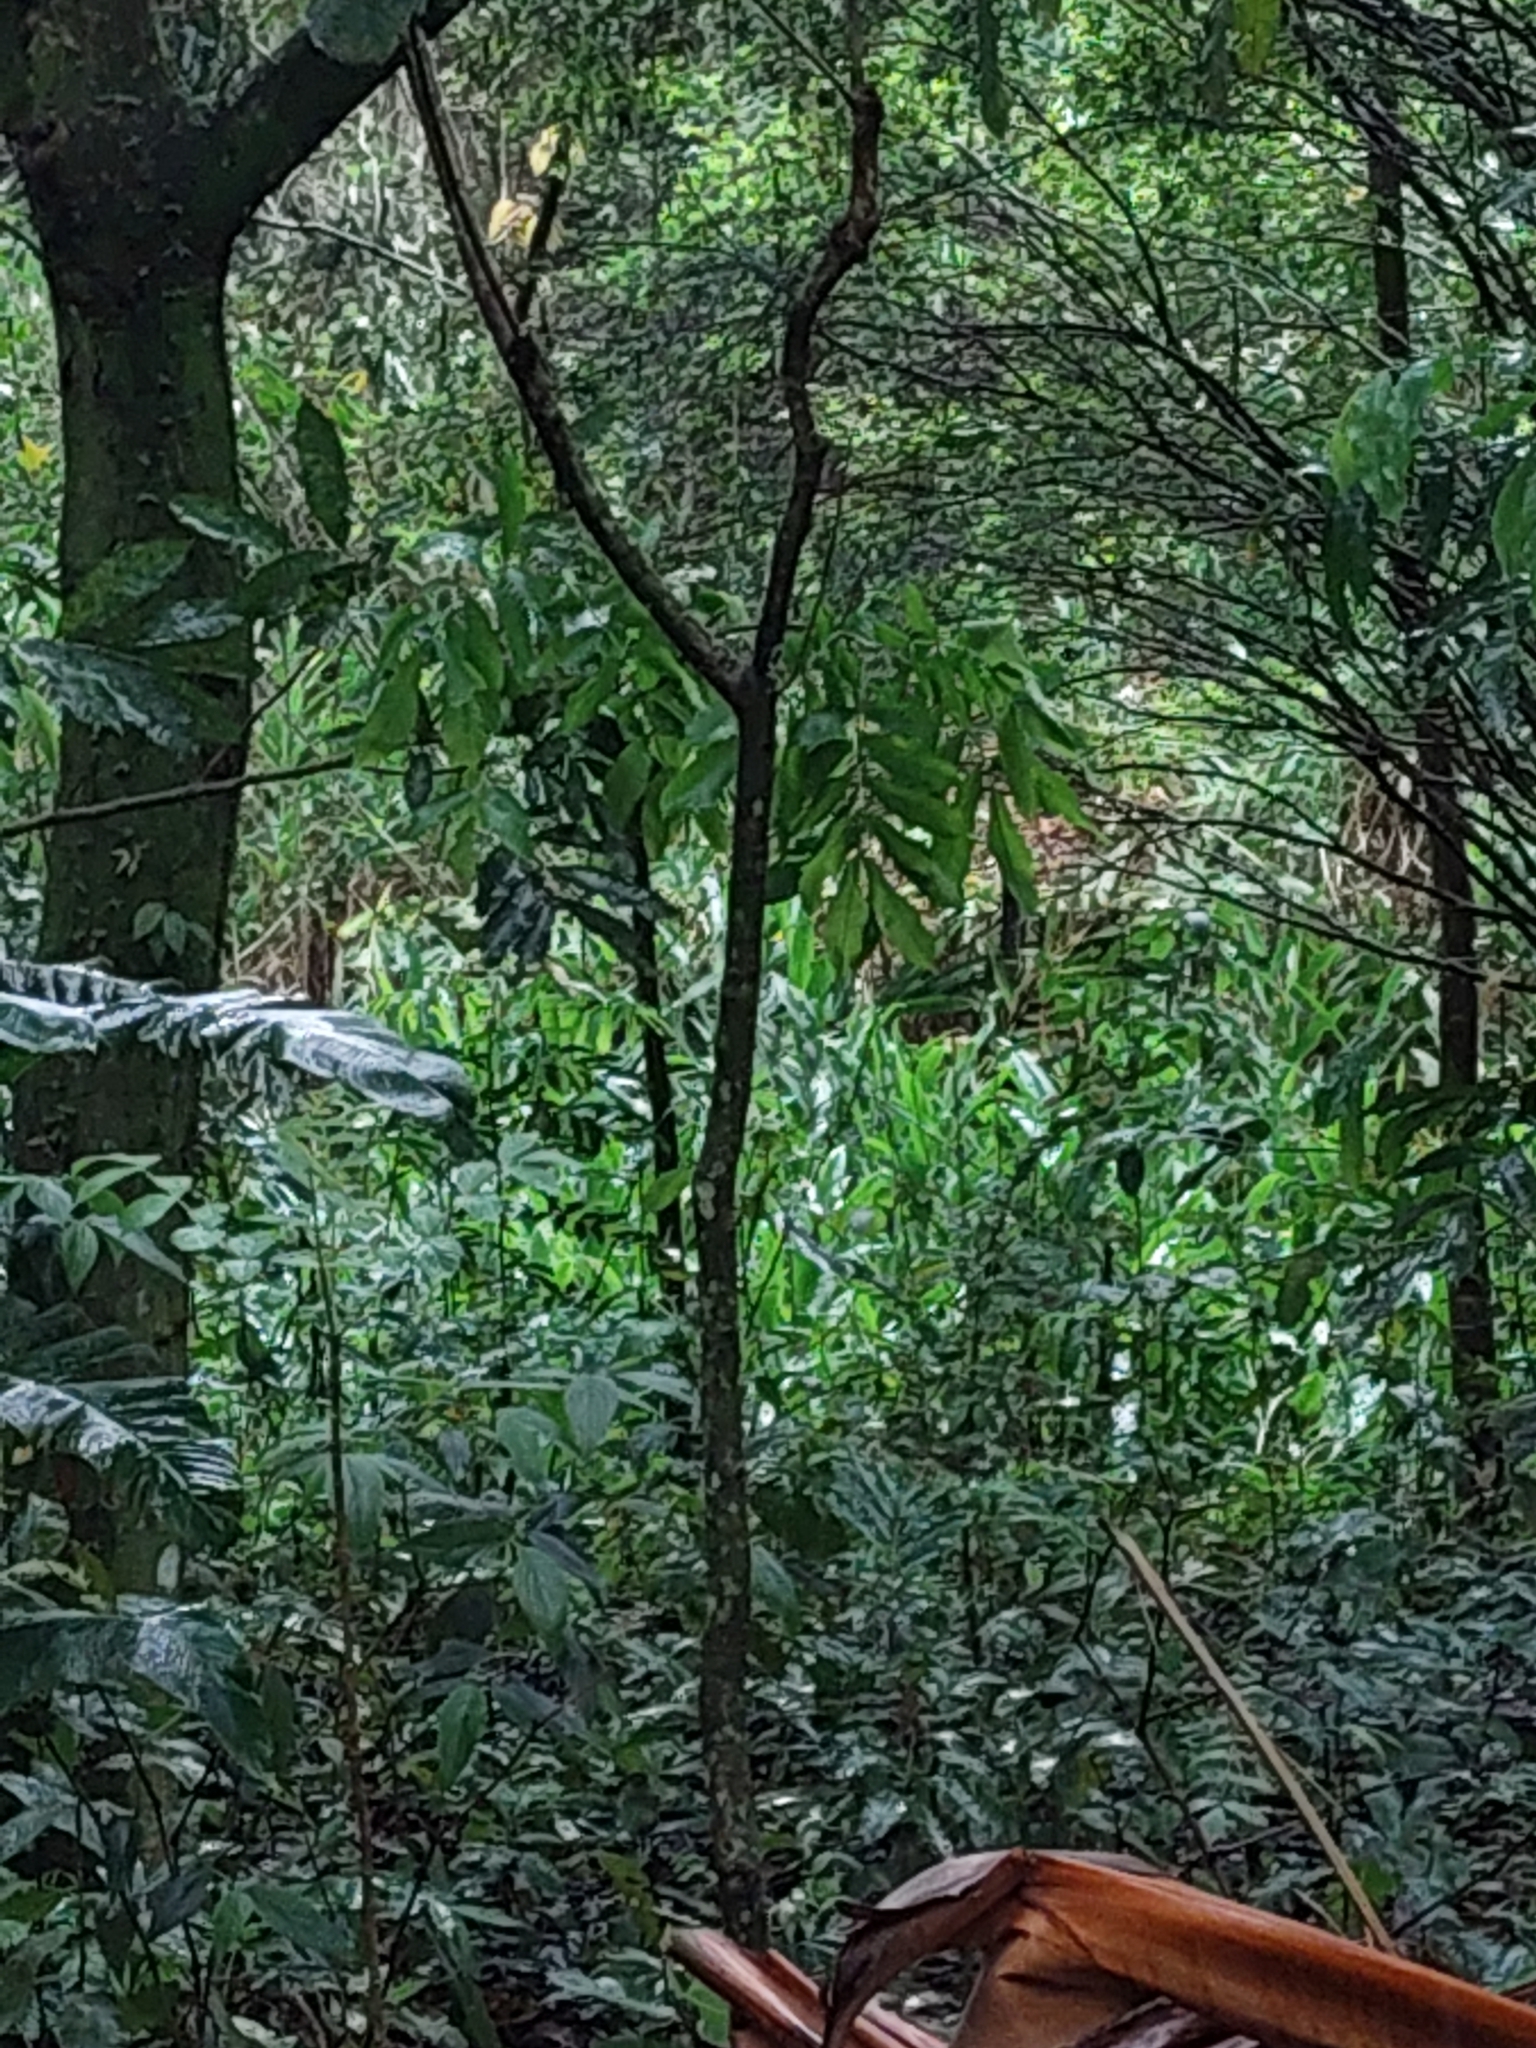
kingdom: Plantae
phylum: Tracheophyta
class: Liliopsida
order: Zingiberales
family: Zingiberaceae
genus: Hedychium
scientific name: Hedychium coronarium
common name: White garland-lily
